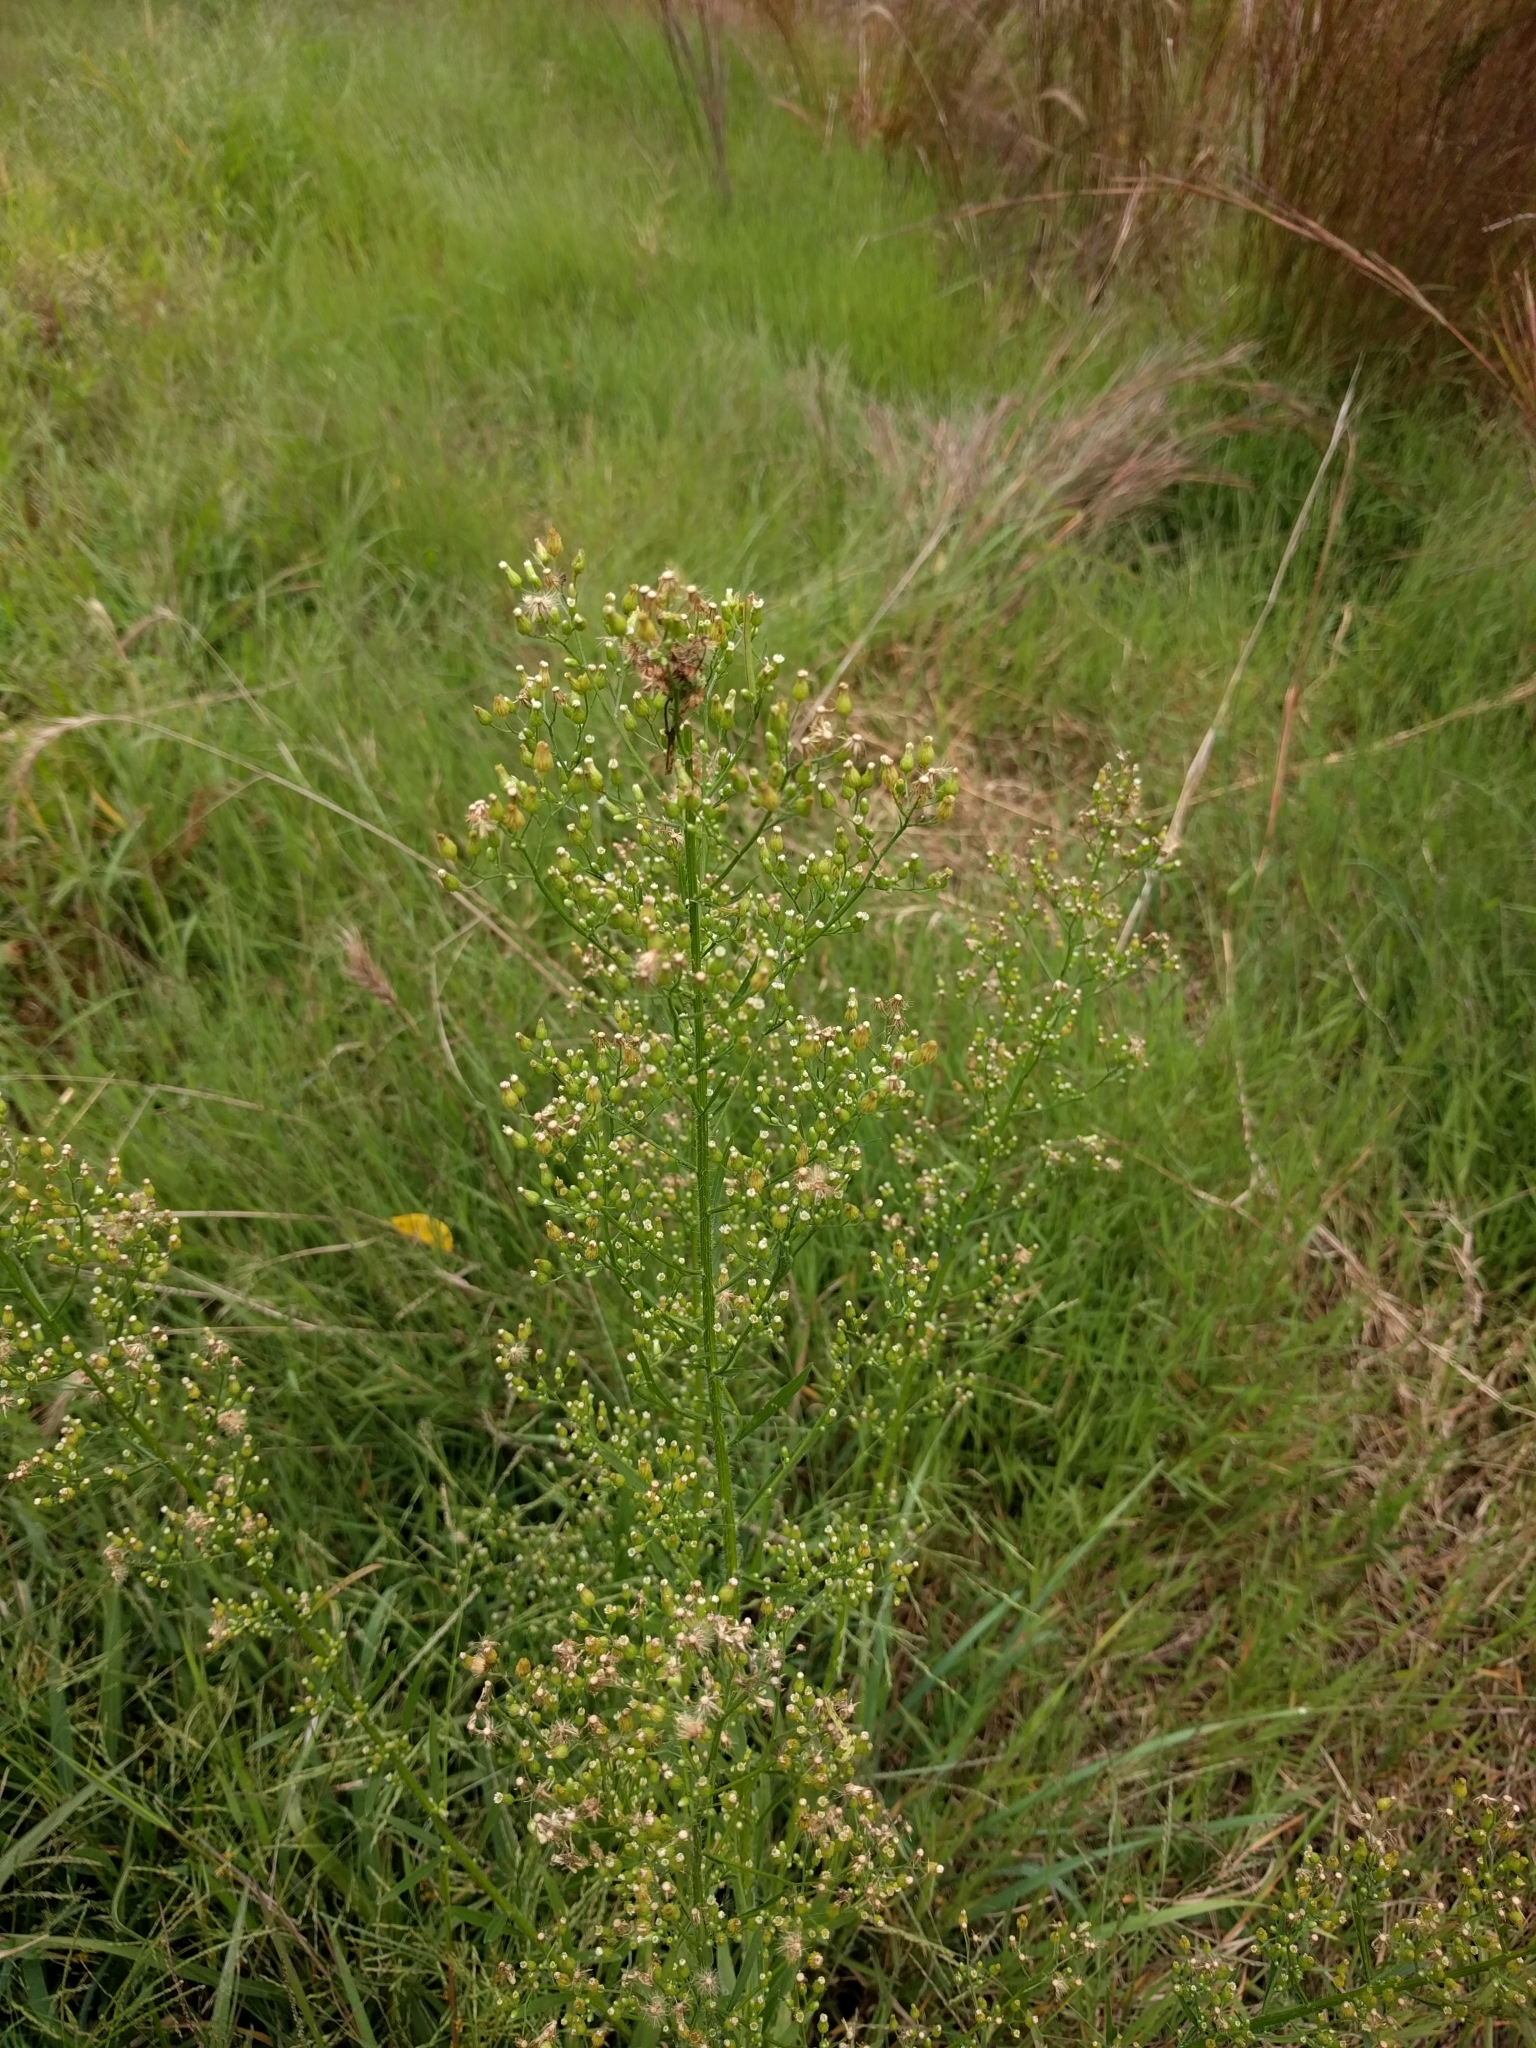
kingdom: Plantae
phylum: Tracheophyta
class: Magnoliopsida
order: Asterales
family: Asteraceae
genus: Erigeron
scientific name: Erigeron canadensis
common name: Canadian fleabane
